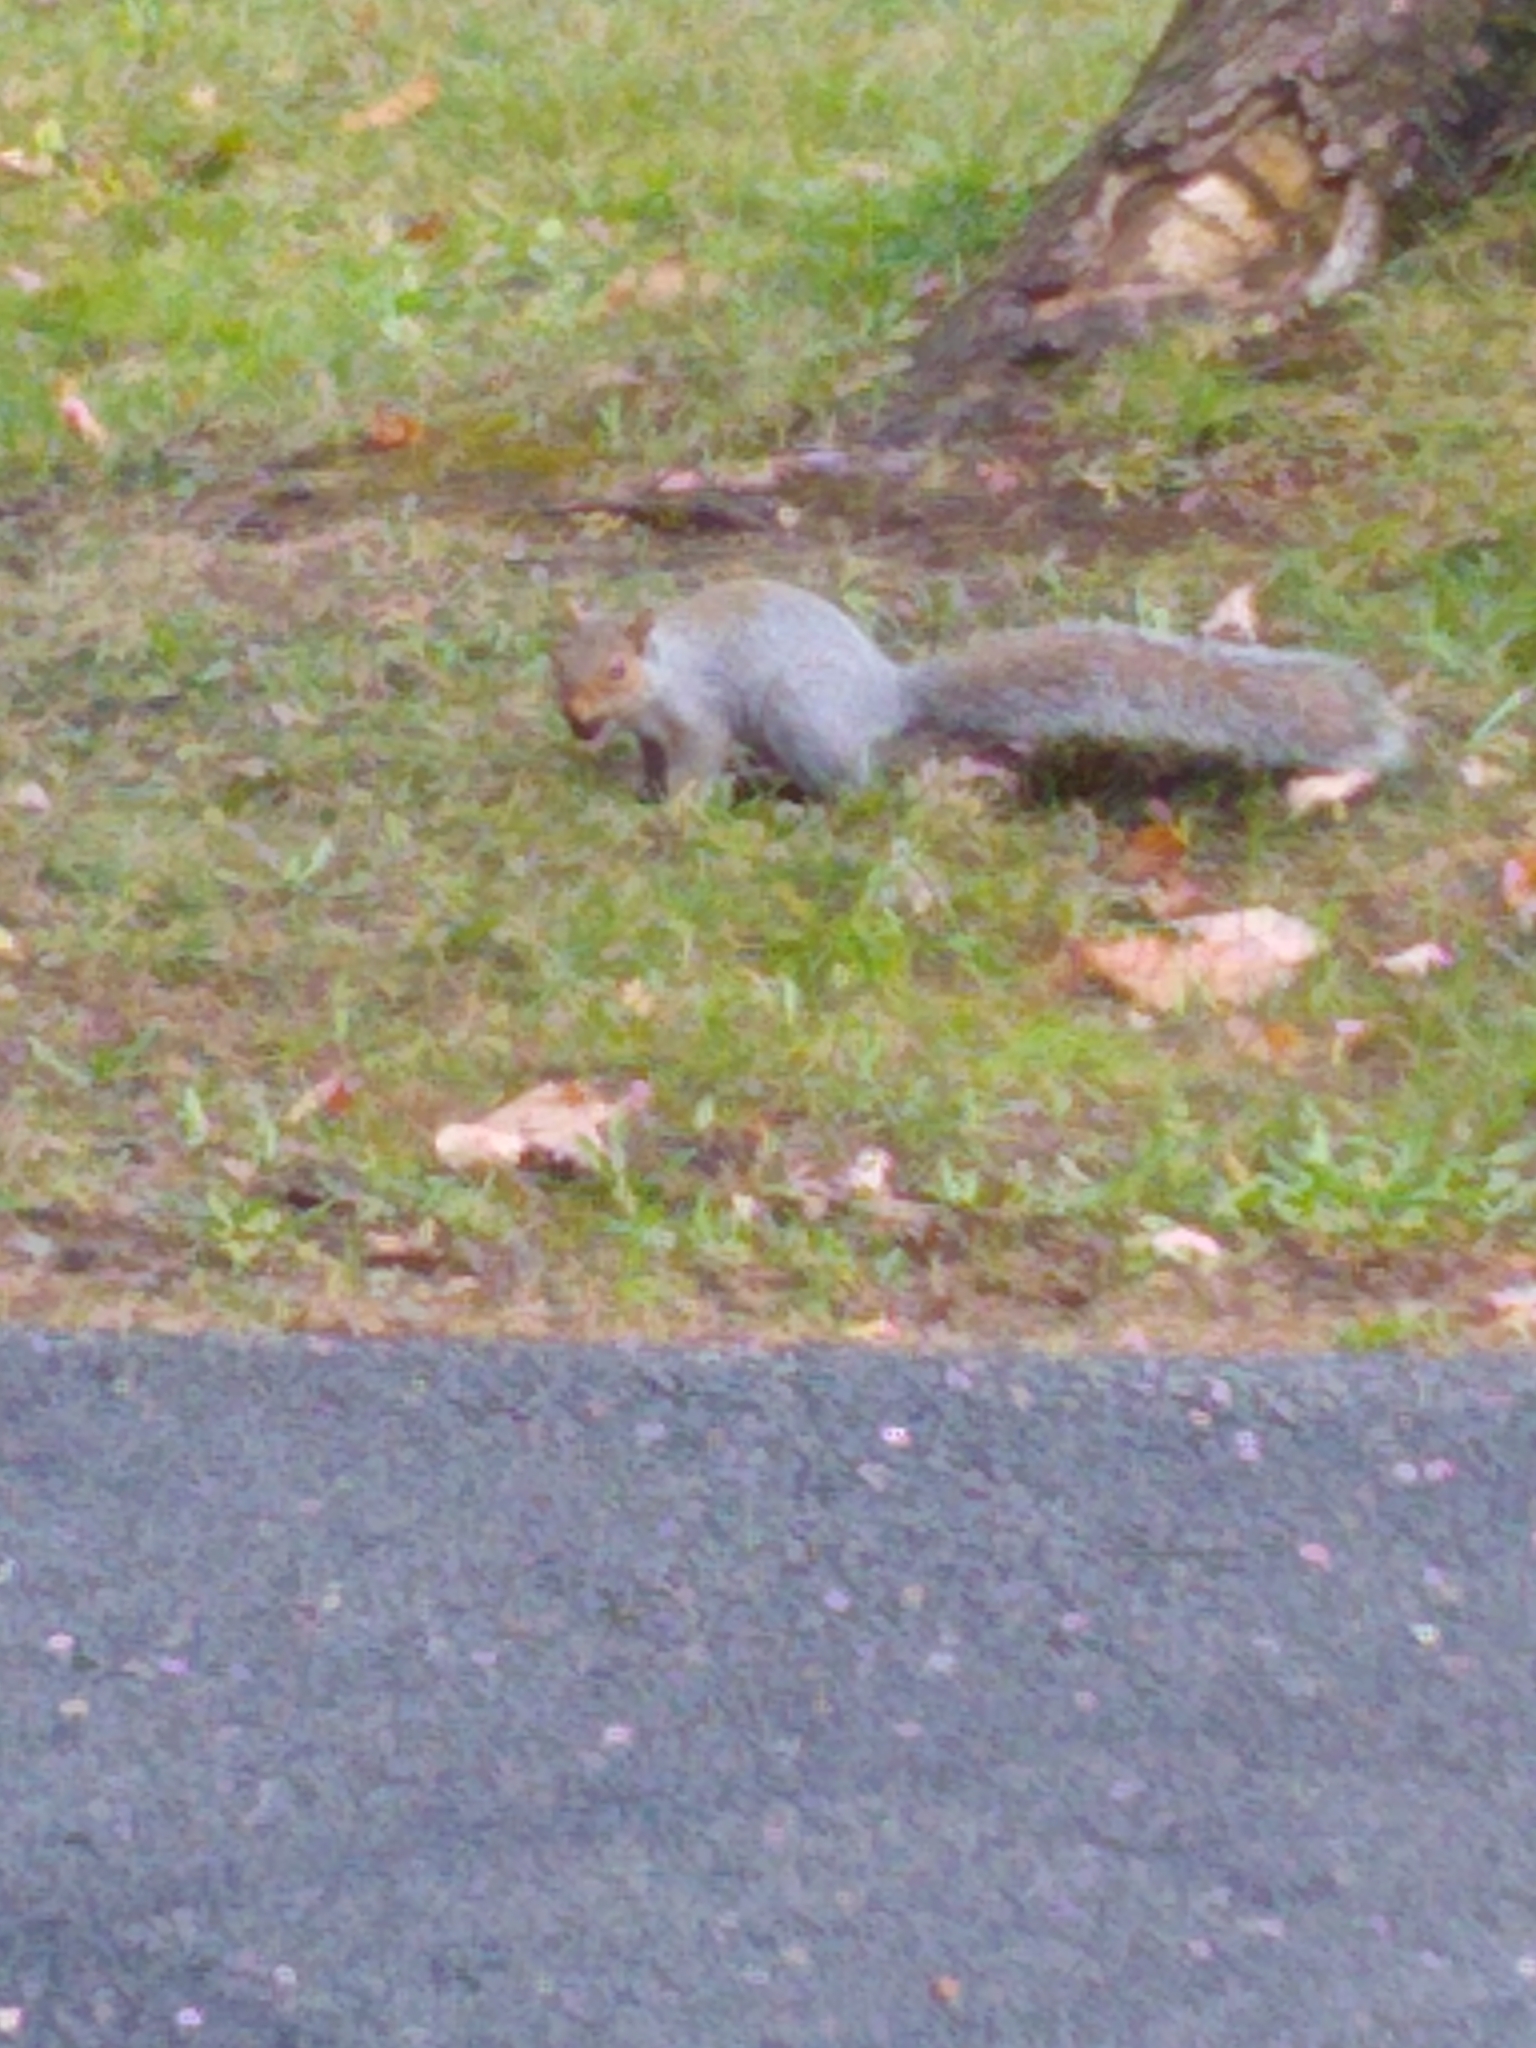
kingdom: Animalia
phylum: Chordata
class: Mammalia
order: Rodentia
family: Sciuridae
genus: Sciurus
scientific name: Sciurus carolinensis
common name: Eastern gray squirrel
